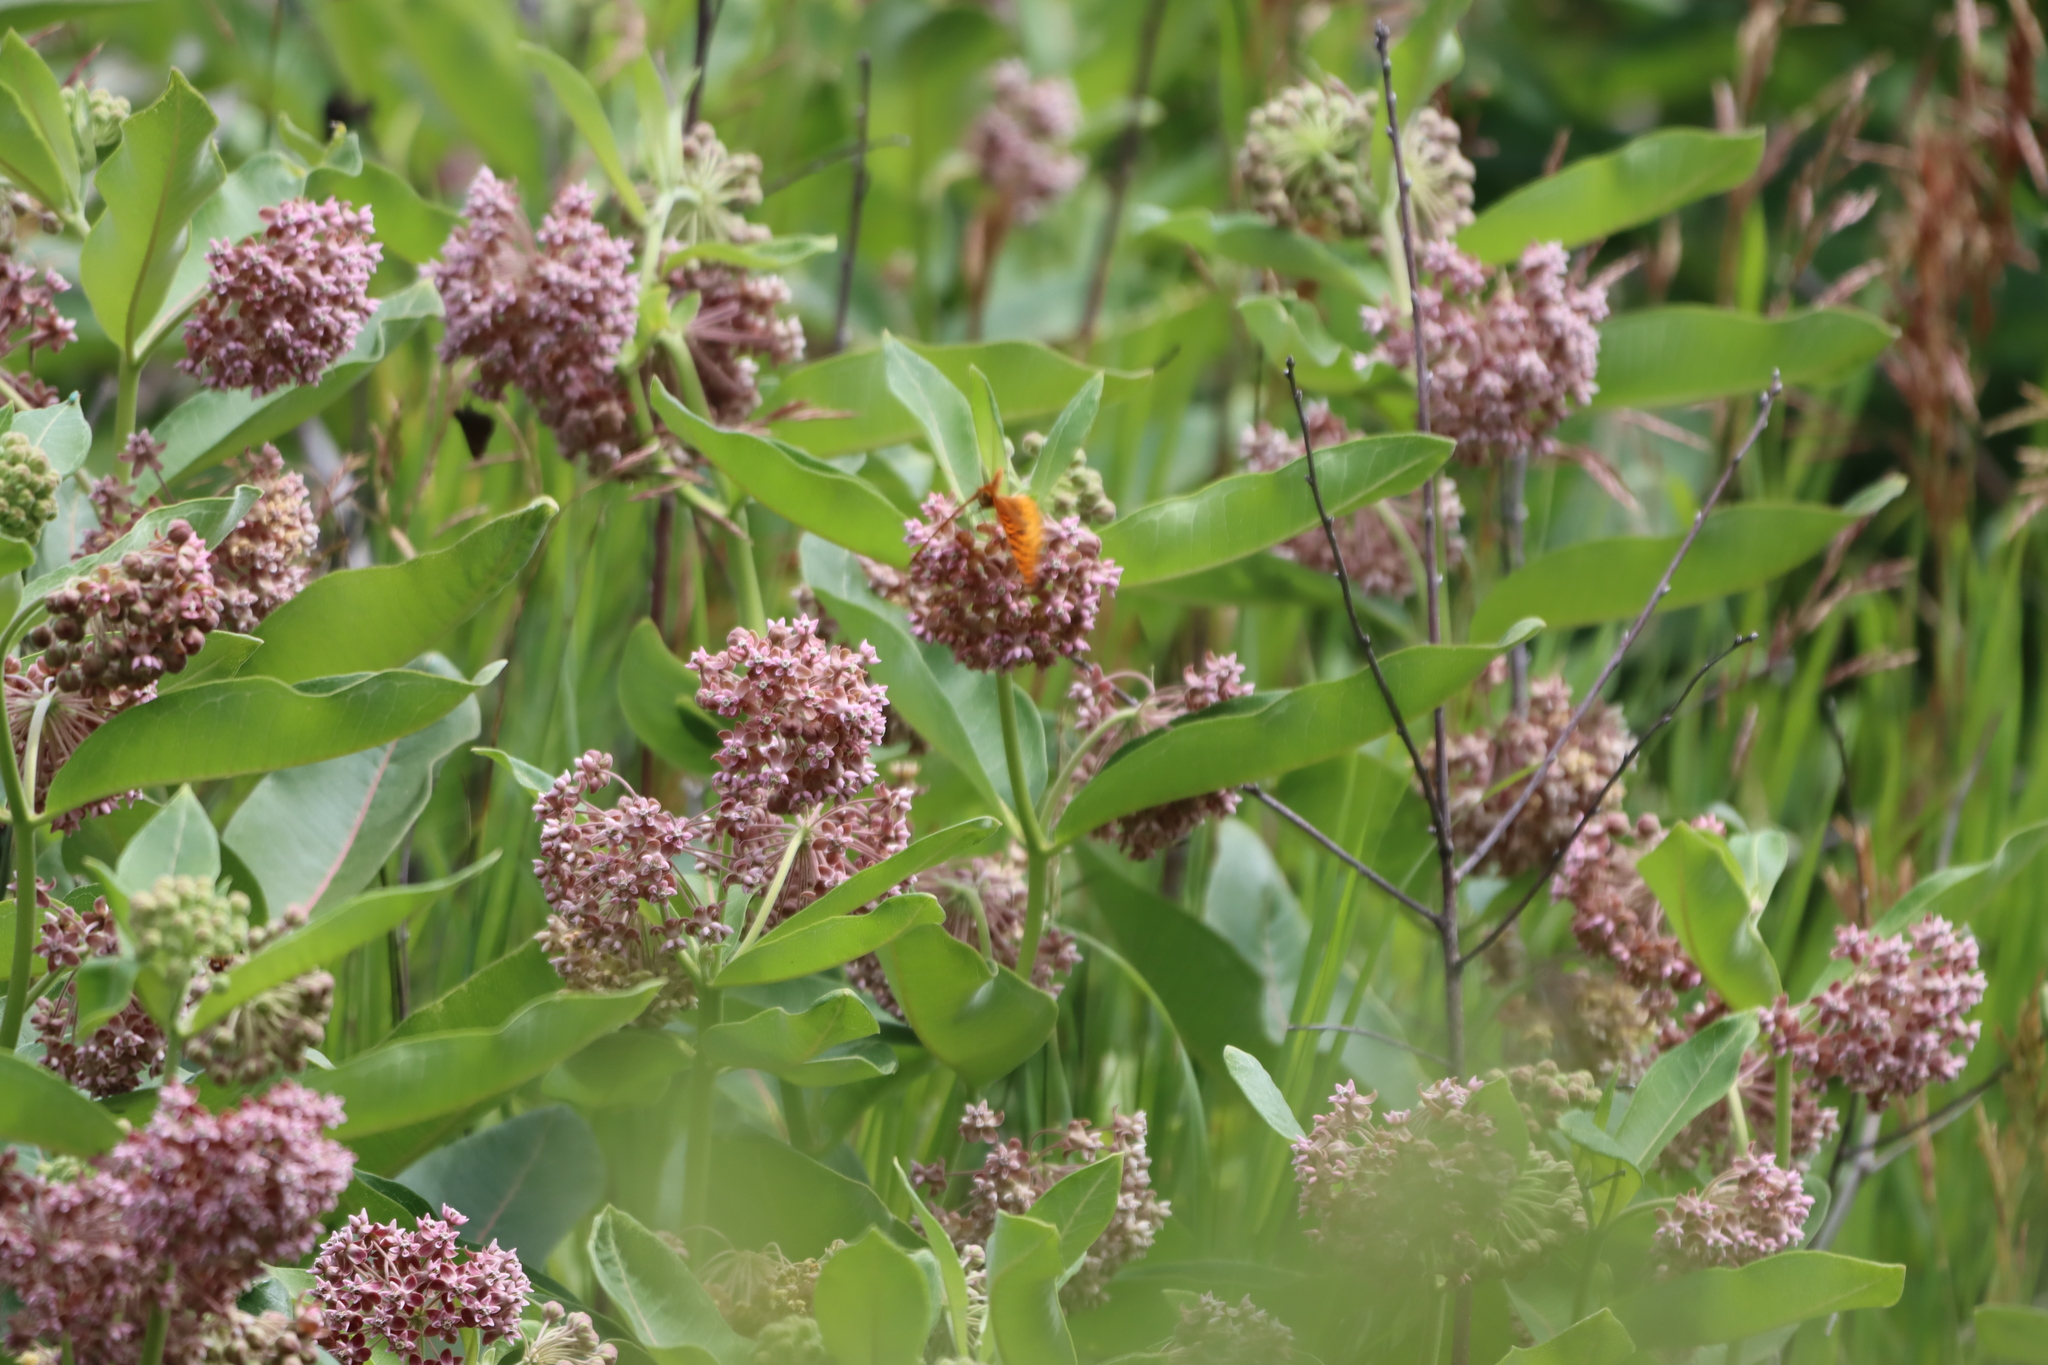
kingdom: Plantae
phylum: Tracheophyta
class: Magnoliopsida
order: Gentianales
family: Apocynaceae
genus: Asclepias
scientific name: Asclepias syriaca
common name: Common milkweed
